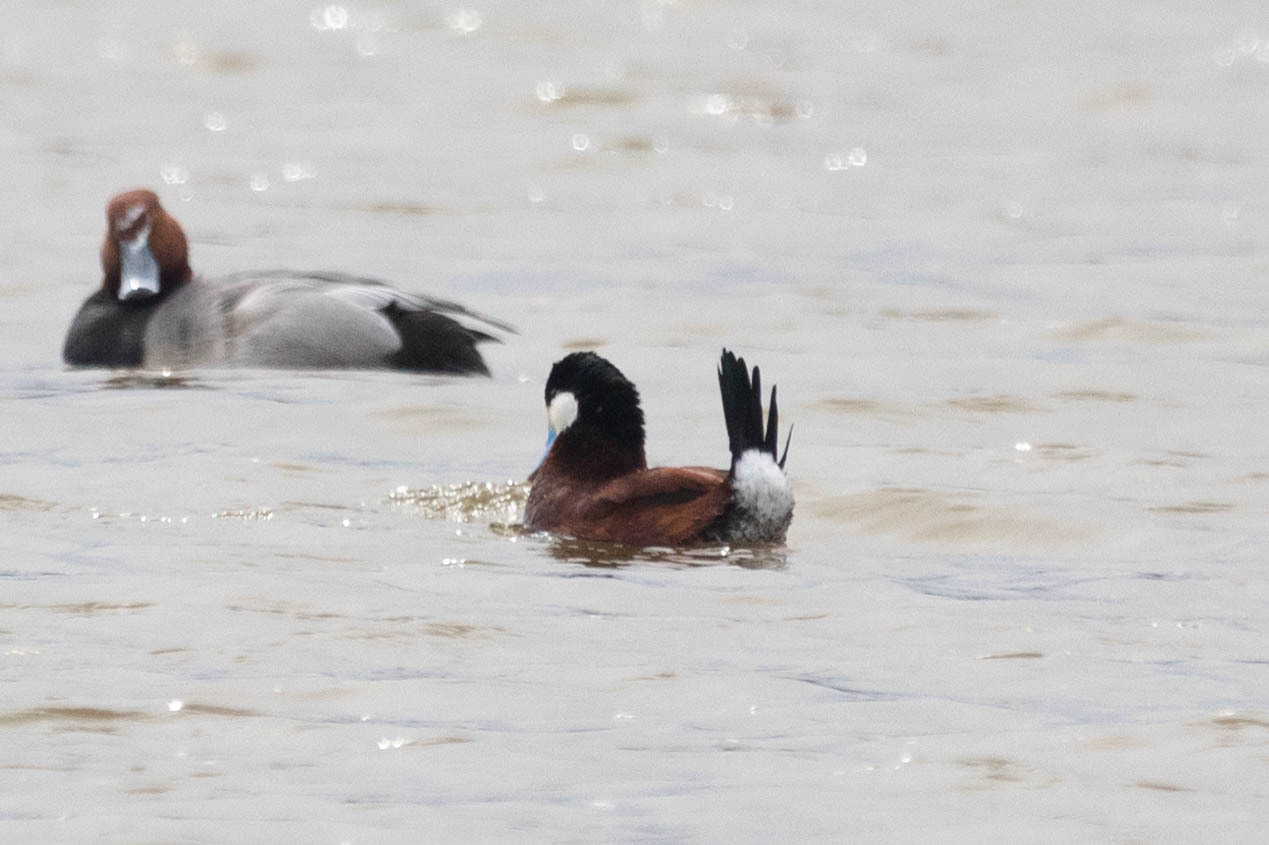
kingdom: Animalia
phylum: Chordata
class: Aves
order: Anseriformes
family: Anatidae
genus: Oxyura
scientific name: Oxyura jamaicensis
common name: Ruddy duck
